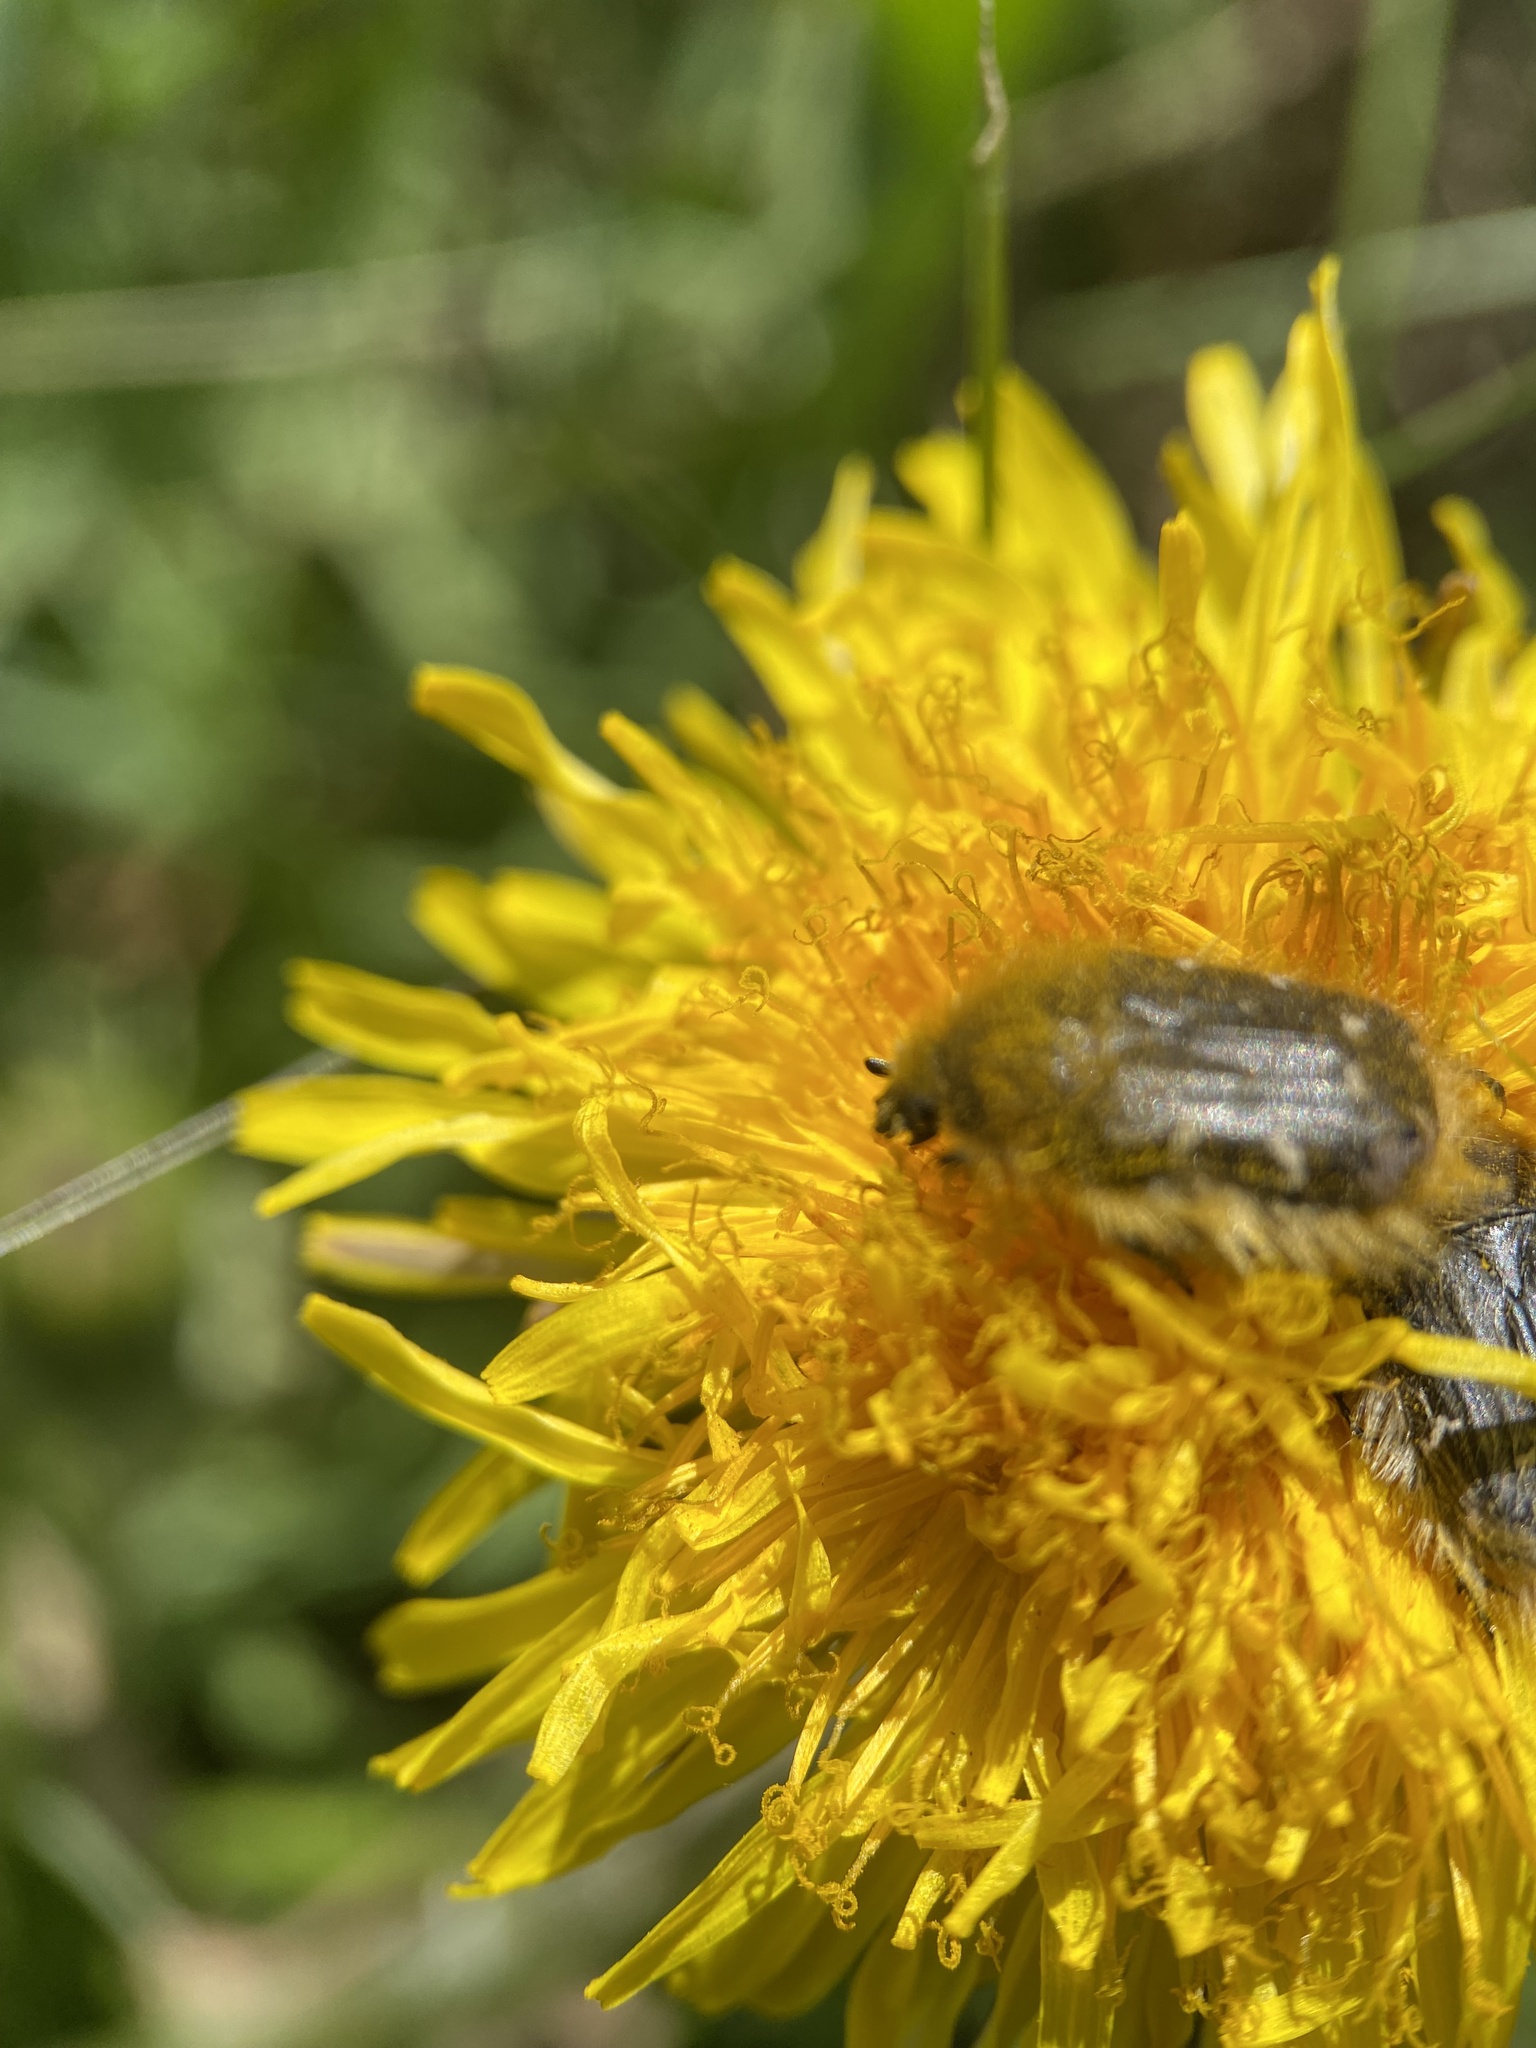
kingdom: Animalia
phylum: Arthropoda
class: Insecta
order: Coleoptera
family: Scarabaeidae
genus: Tropinota
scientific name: Tropinota hirta
